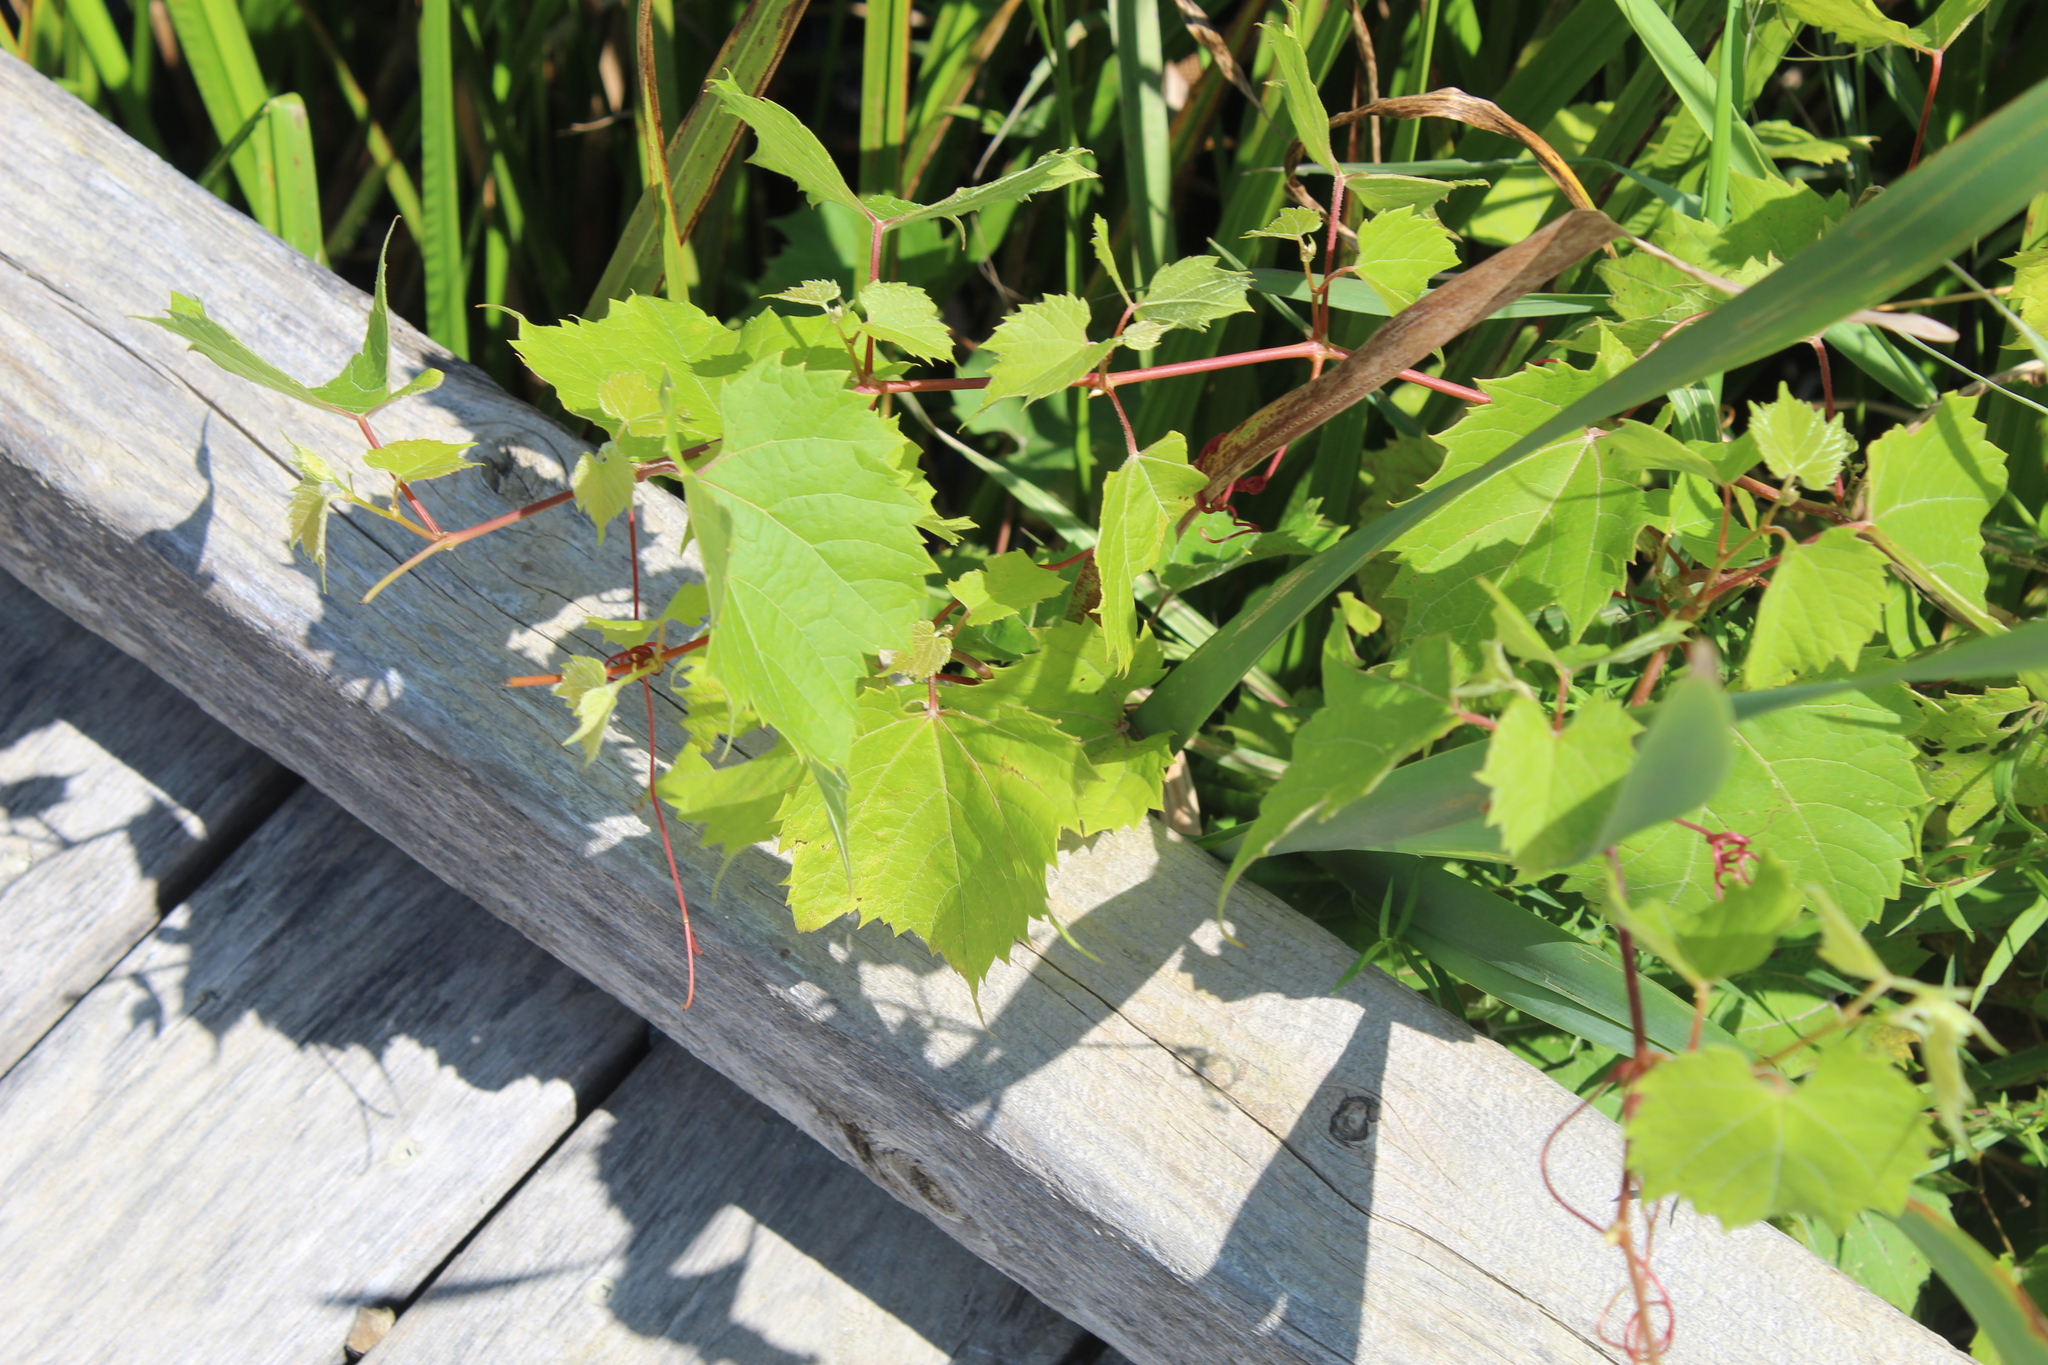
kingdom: Plantae
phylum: Tracheophyta
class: Magnoliopsida
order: Vitales
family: Vitaceae
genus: Vitis
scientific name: Vitis riparia
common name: Frost grape
